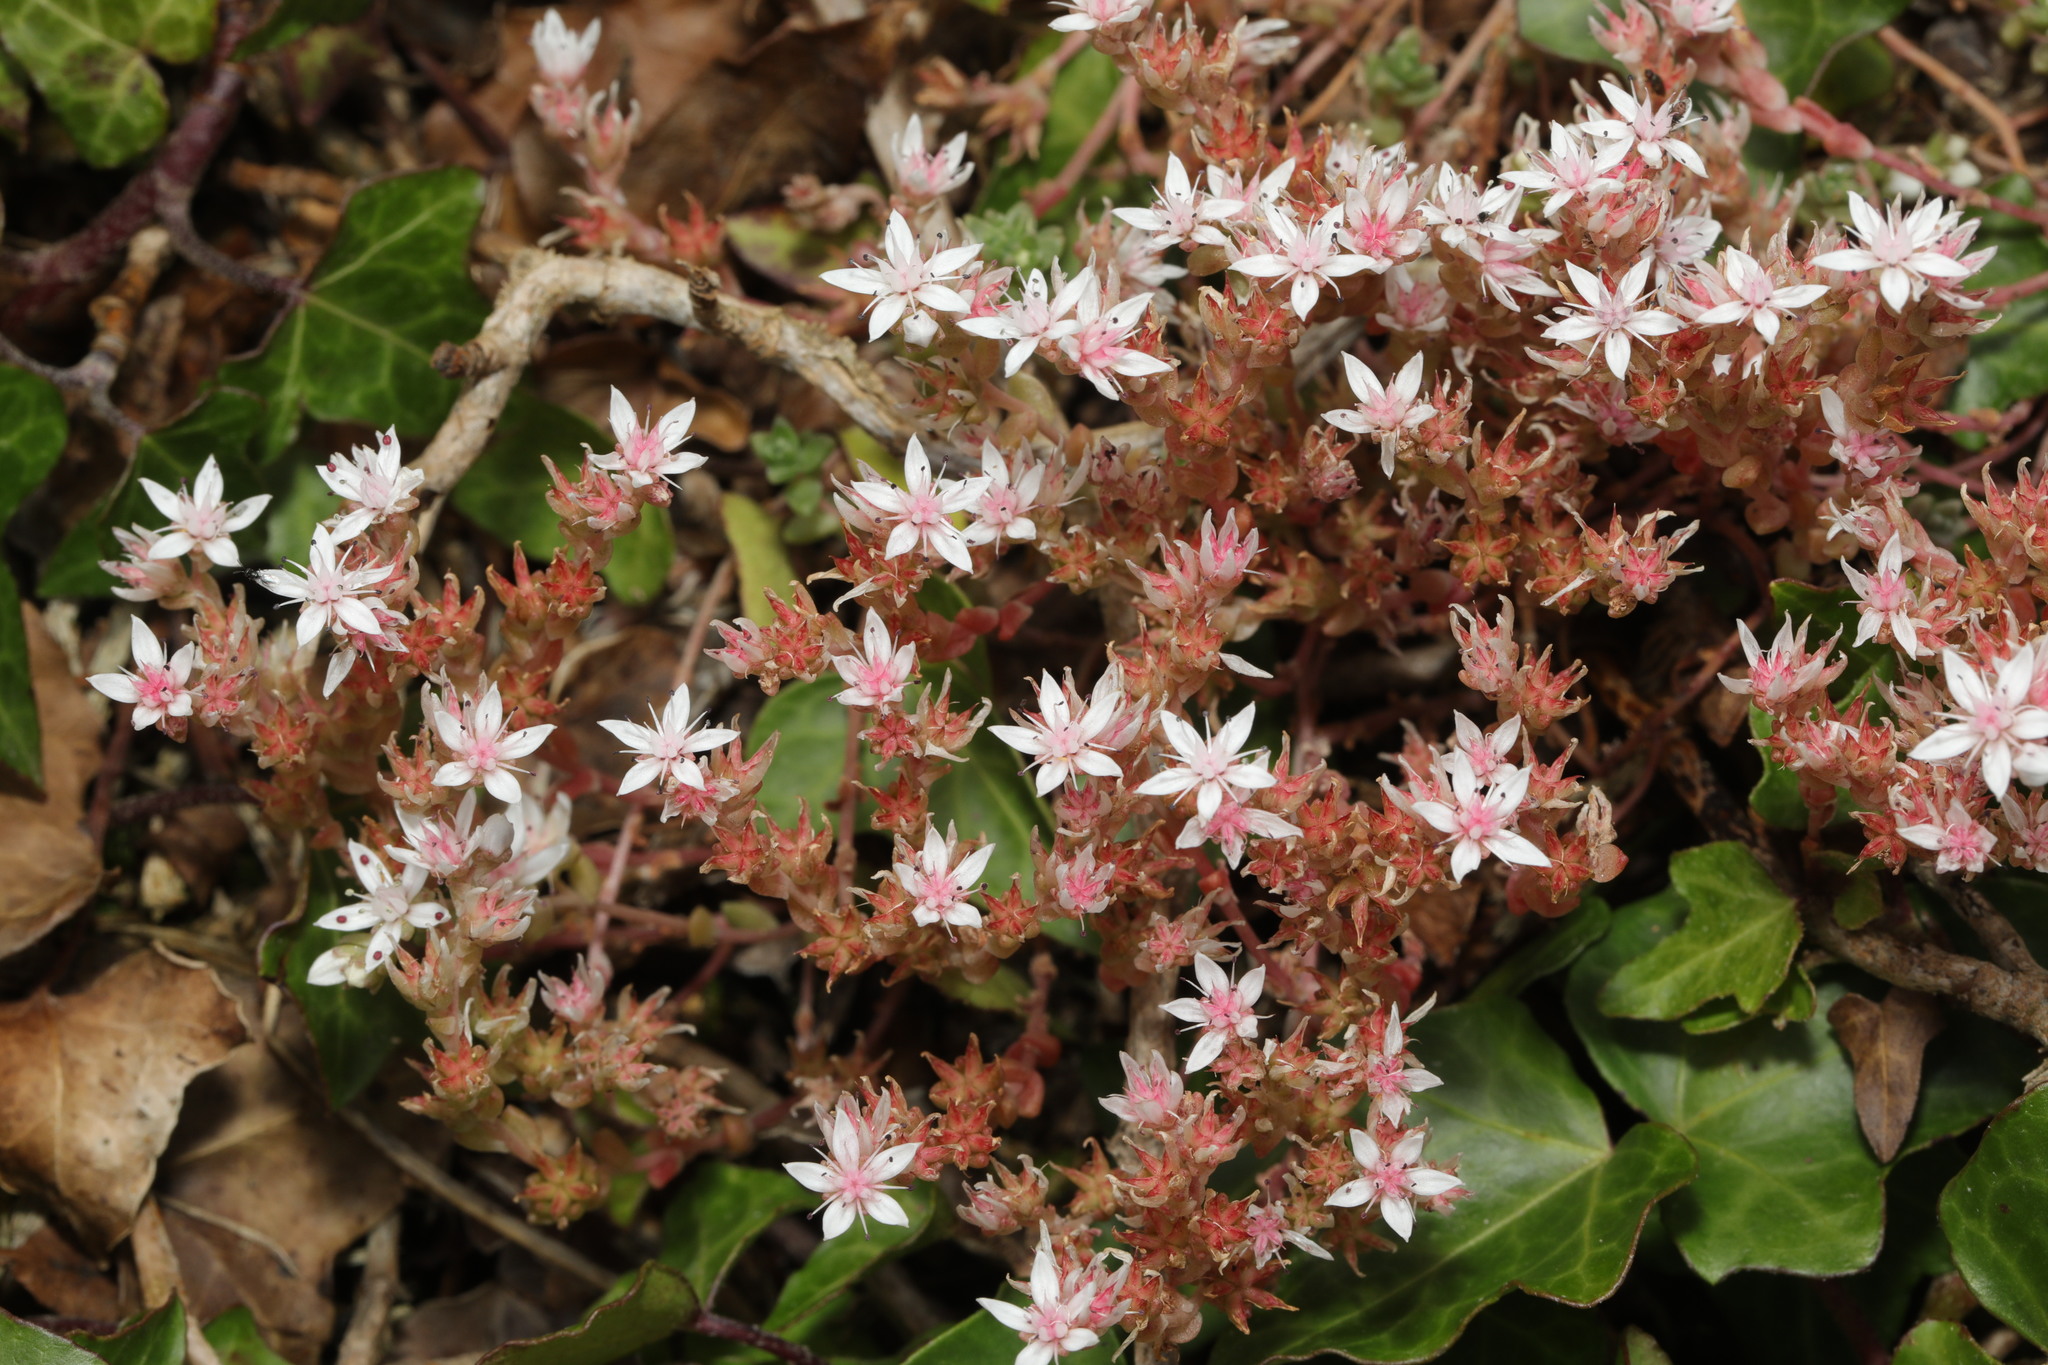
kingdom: Plantae
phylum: Tracheophyta
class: Magnoliopsida
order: Saxifragales
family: Crassulaceae
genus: Sedum
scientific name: Sedum anglicum
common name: English stonecrop
